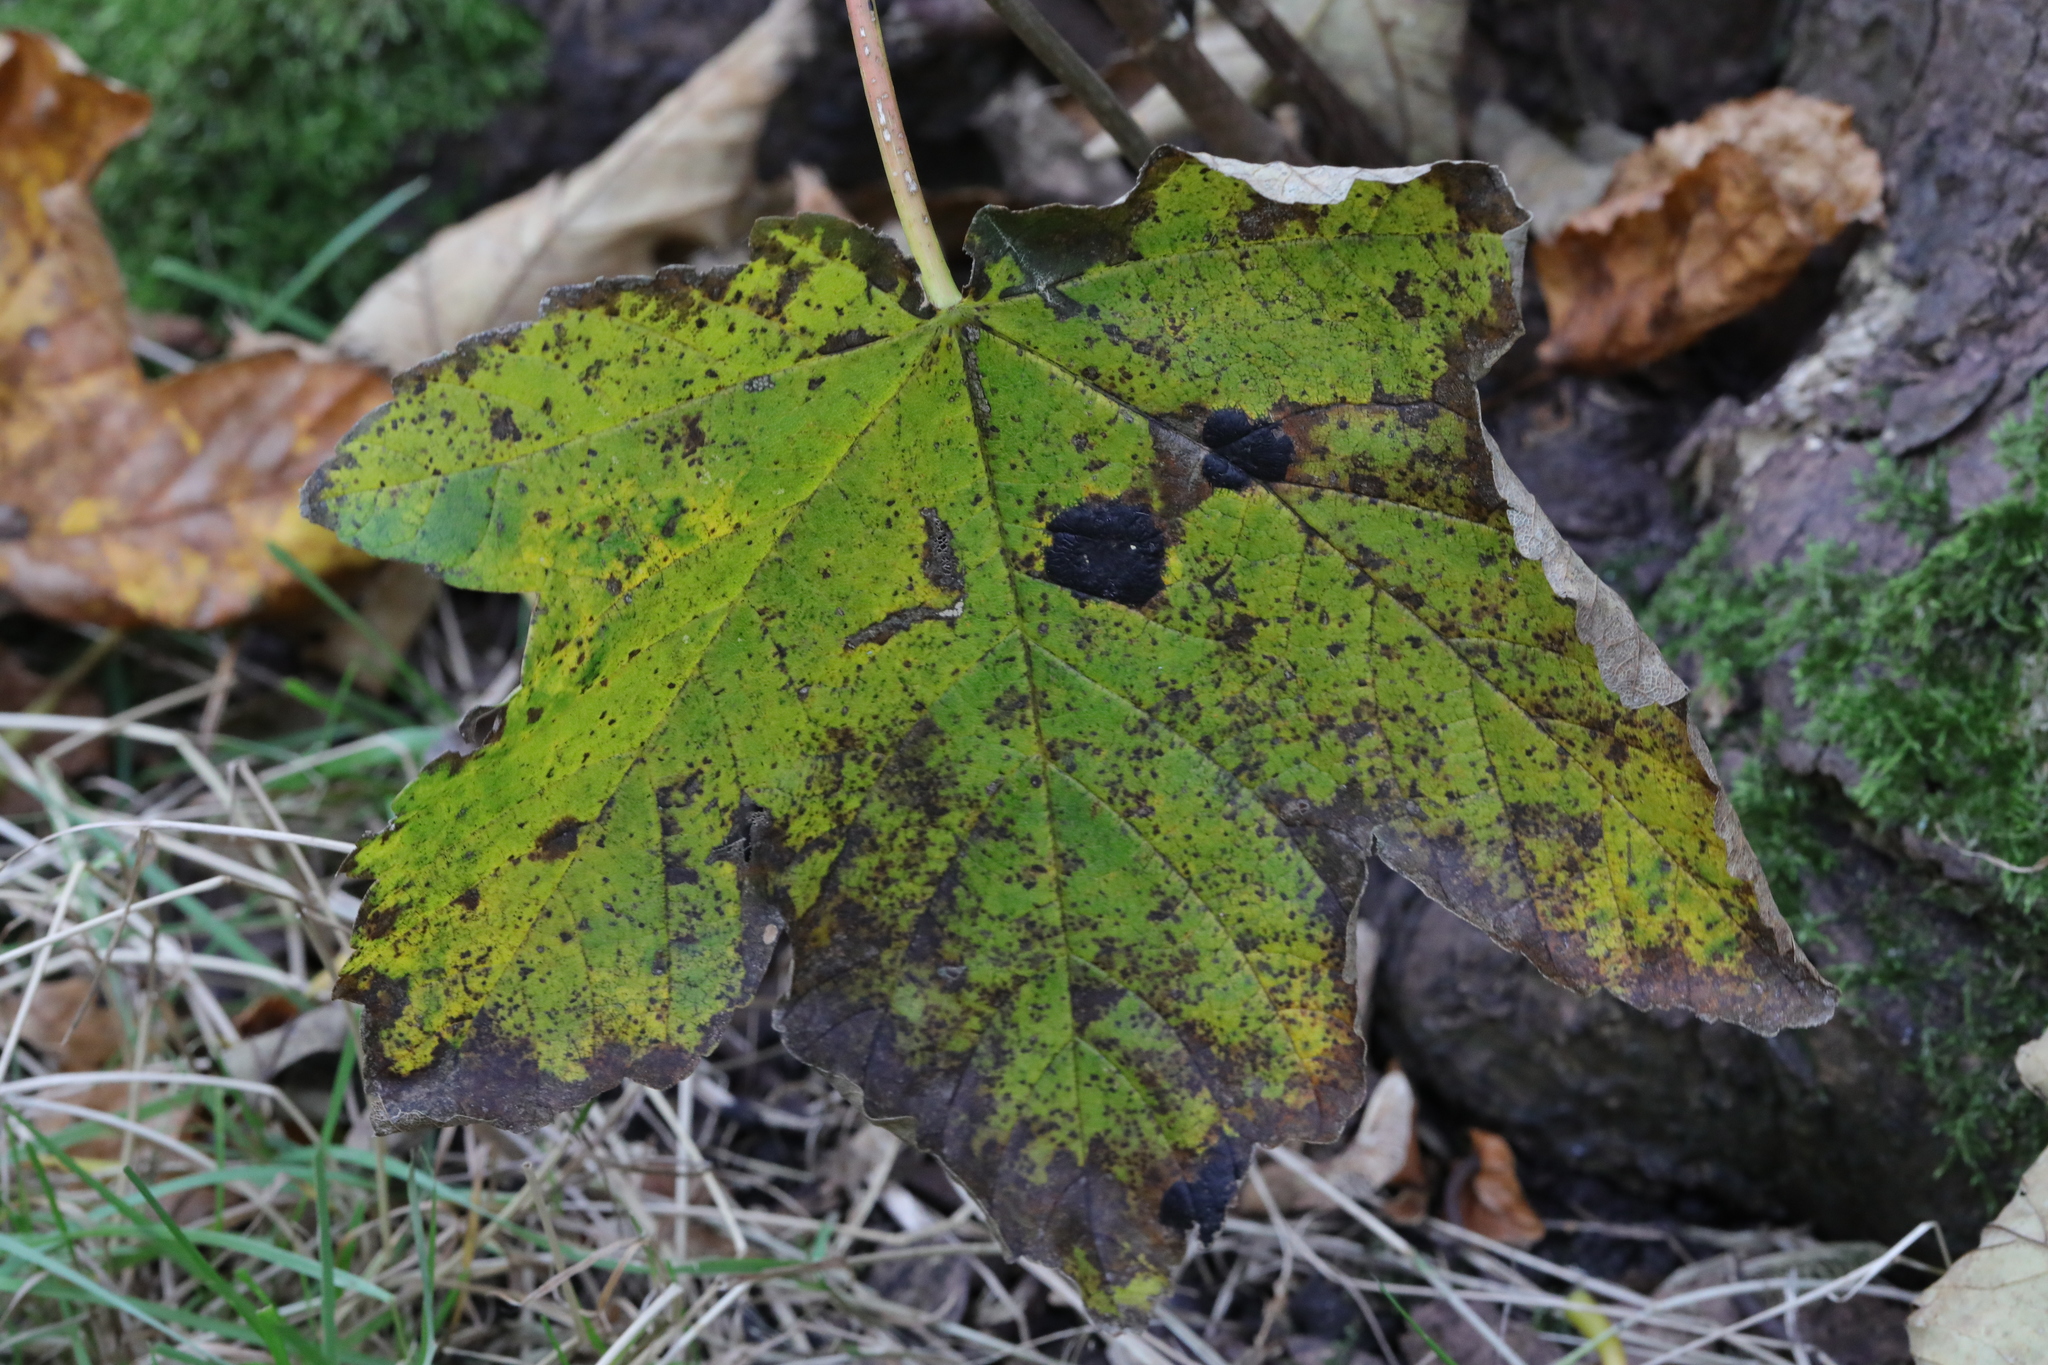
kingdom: Plantae
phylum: Tracheophyta
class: Magnoliopsida
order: Sapindales
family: Sapindaceae
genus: Acer
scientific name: Acer pseudoplatanus
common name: Sycamore
